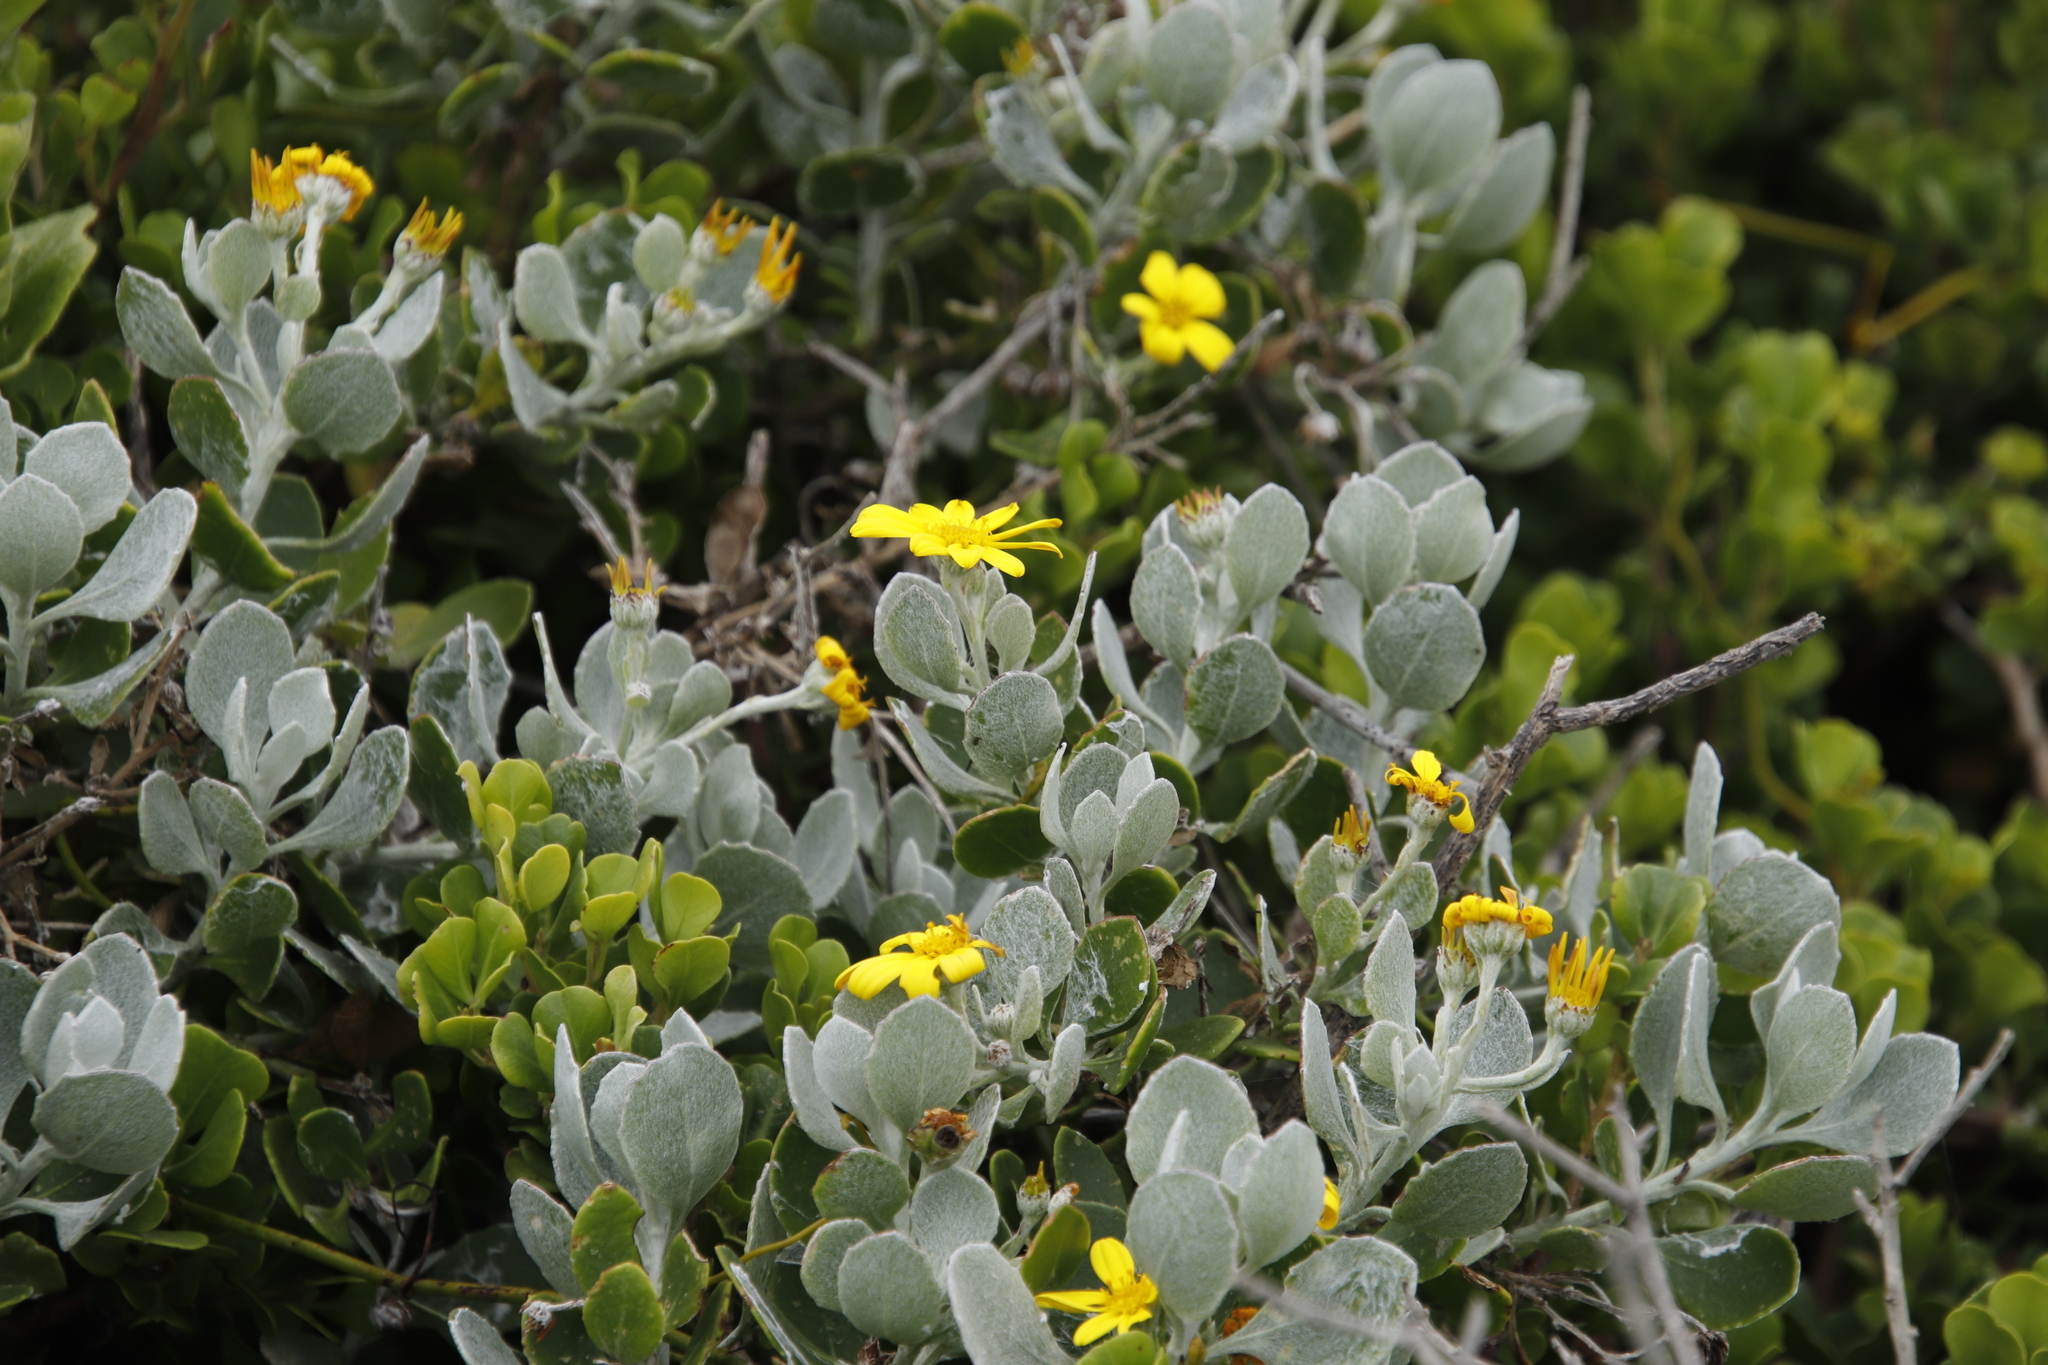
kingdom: Plantae
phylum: Tracheophyta
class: Magnoliopsida
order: Asterales
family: Asteraceae
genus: Osteospermum
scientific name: Osteospermum incanum
